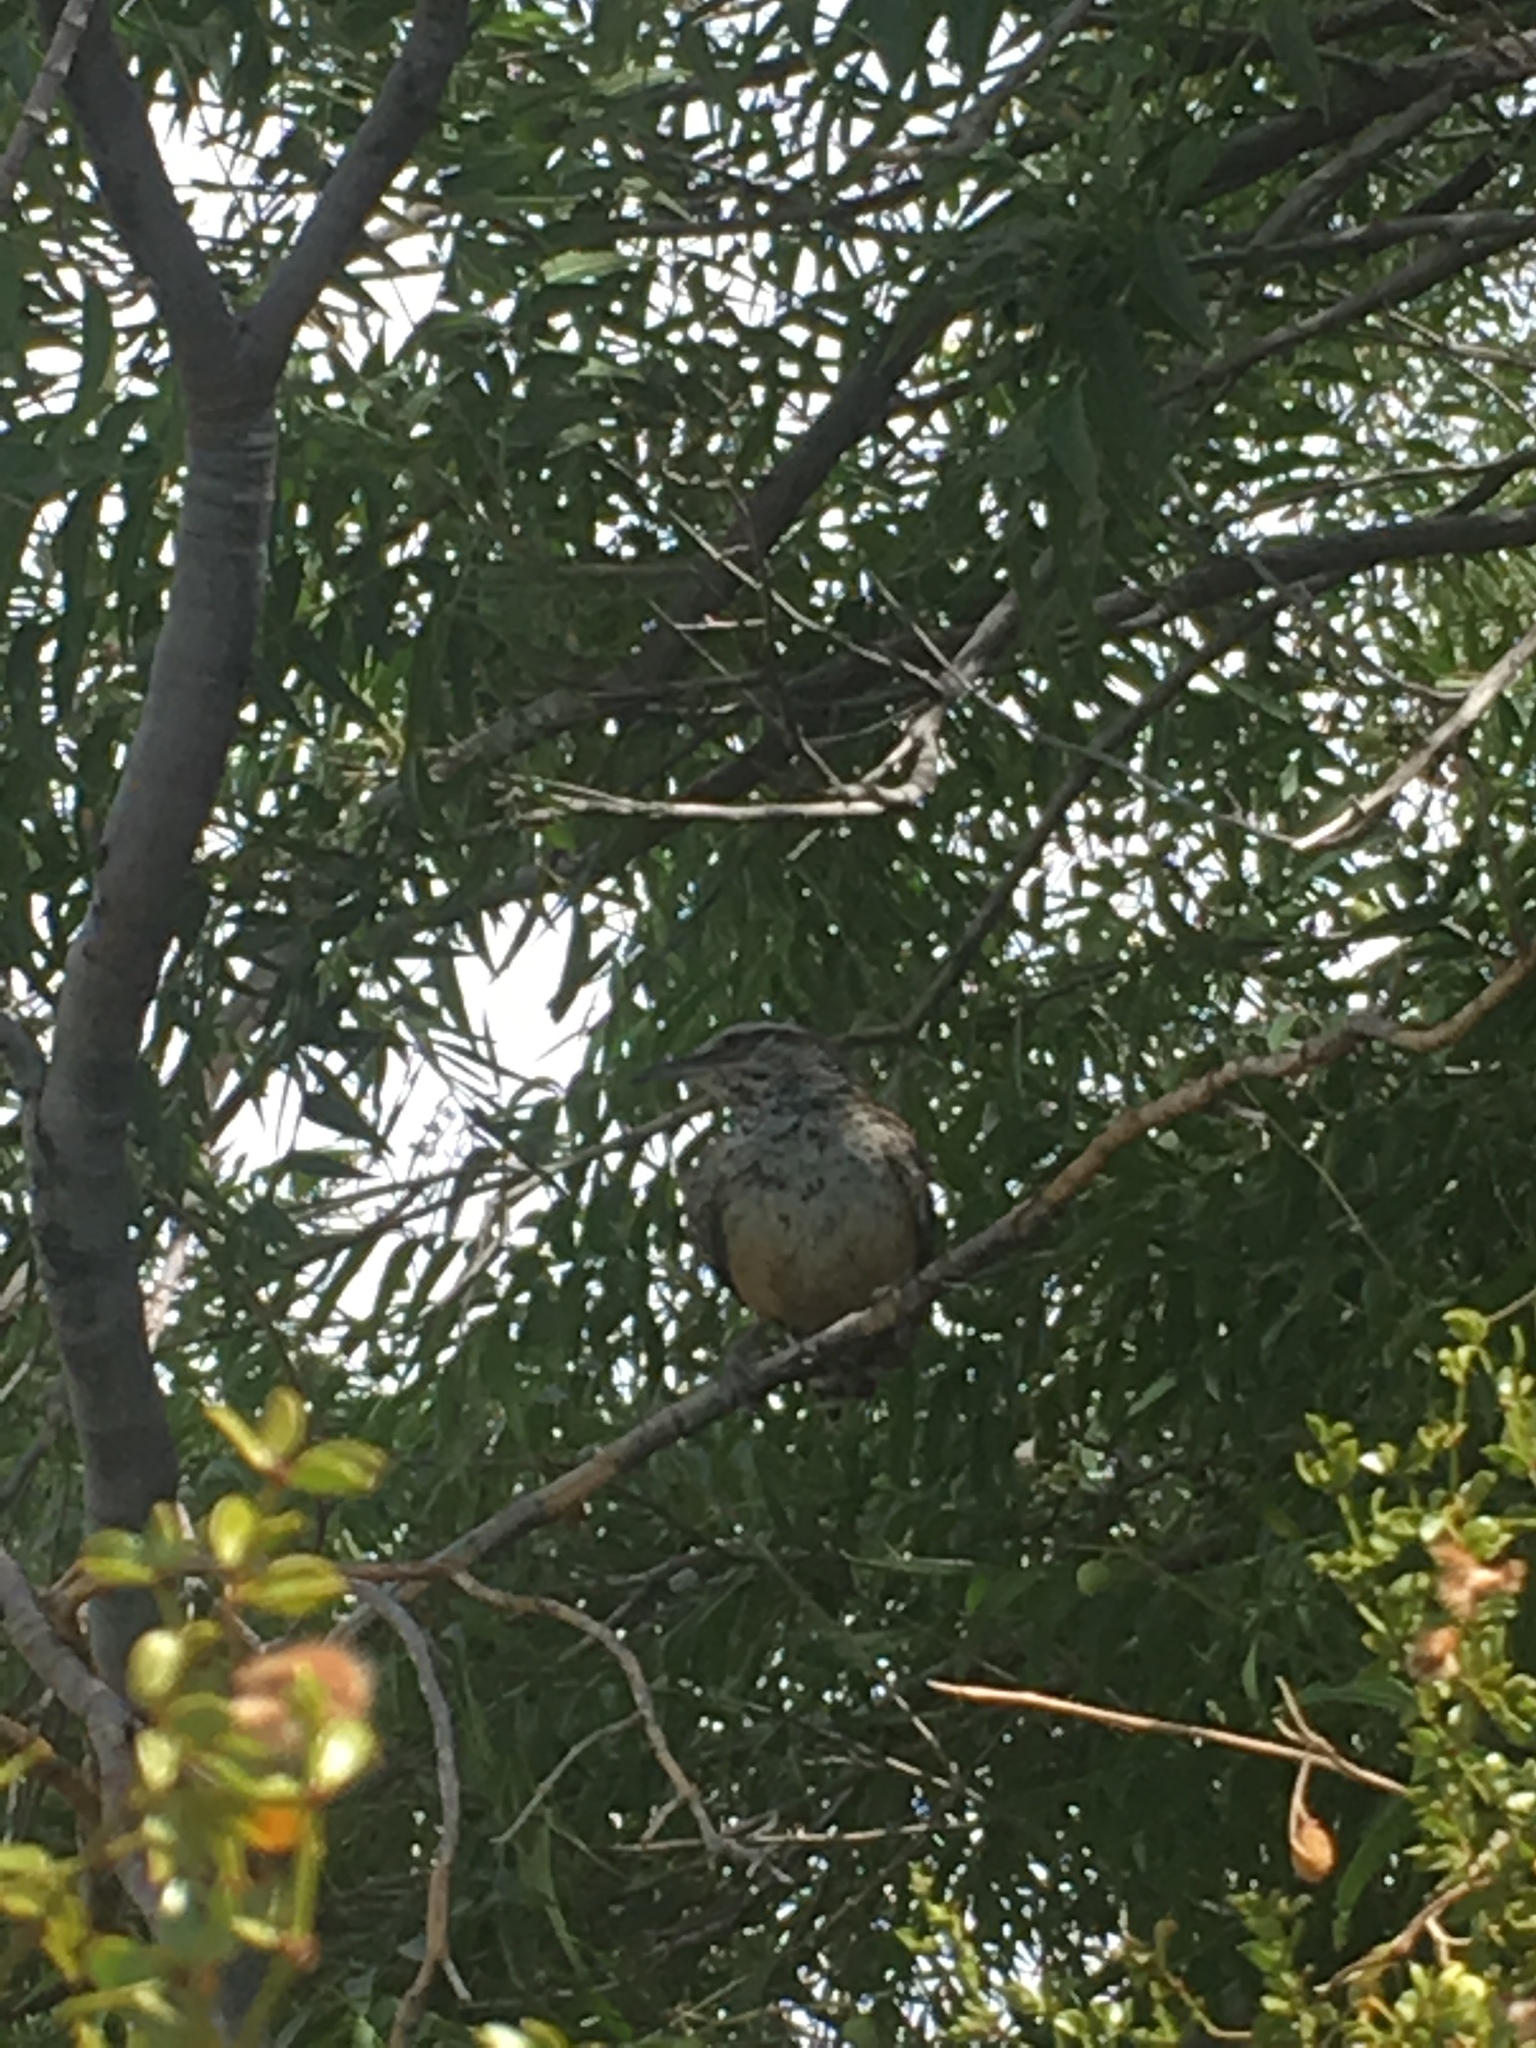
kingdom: Animalia
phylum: Chordata
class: Aves
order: Passeriformes
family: Troglodytidae
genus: Campylorhynchus
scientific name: Campylorhynchus brunneicapillus
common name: Cactus wren
